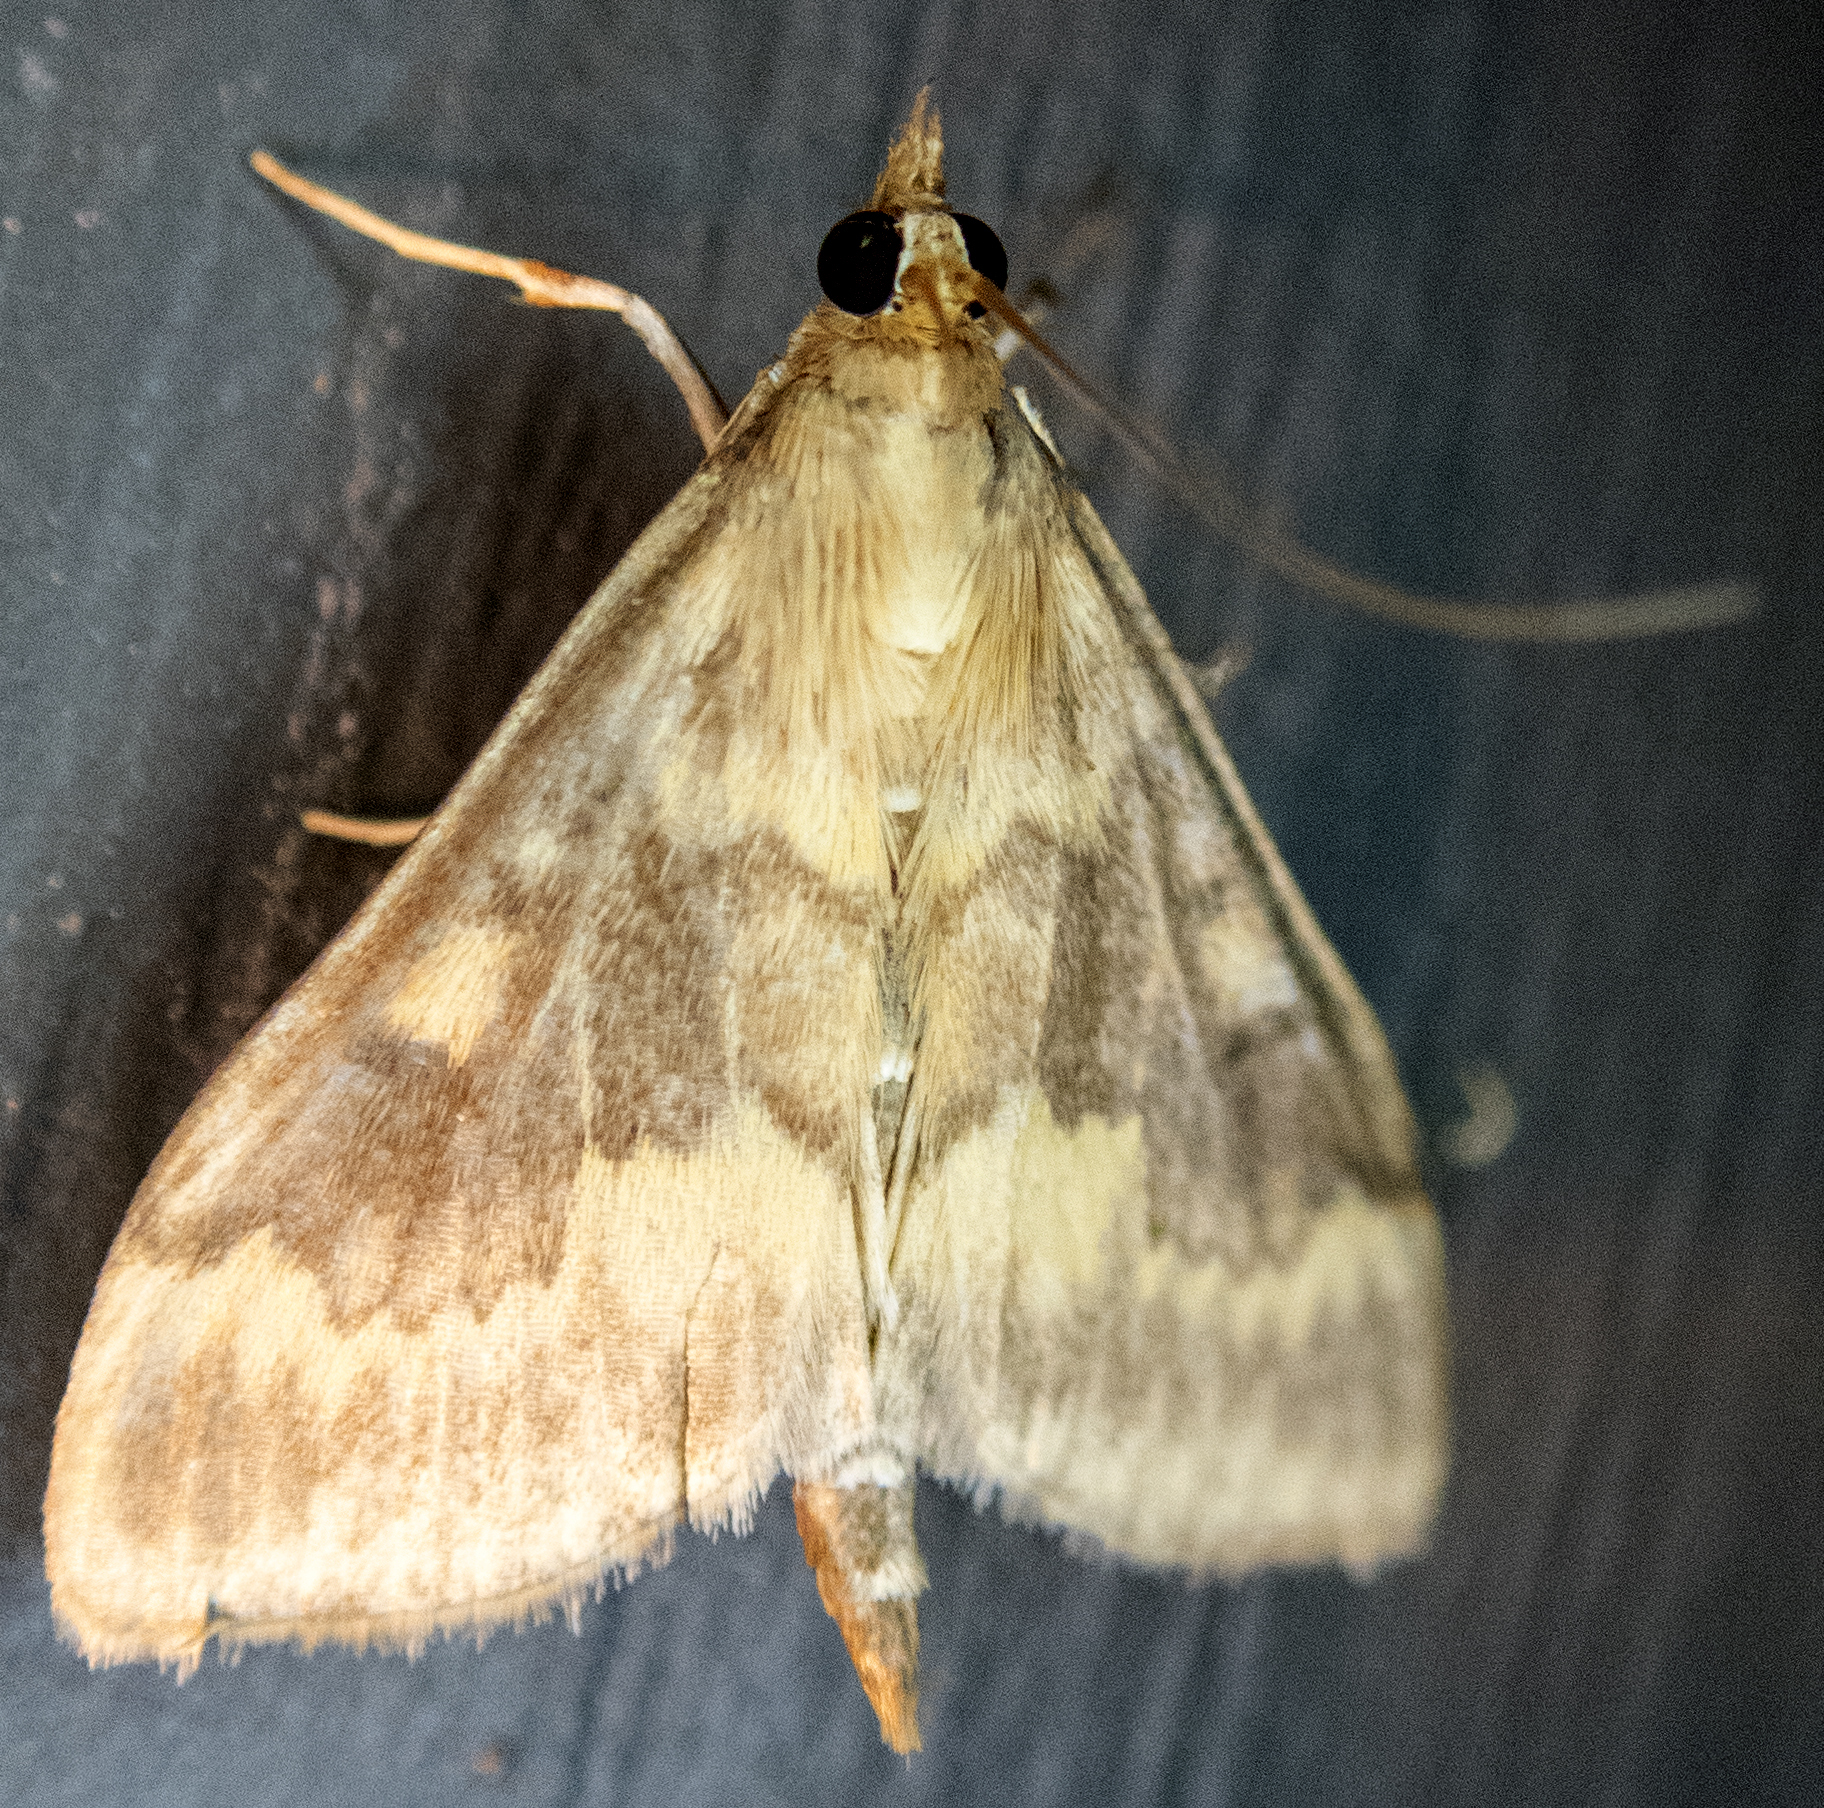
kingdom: Animalia
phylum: Arthropoda
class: Insecta
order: Lepidoptera
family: Crambidae
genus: Ostrinia
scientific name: Ostrinia nubilalis
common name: European corn borer
